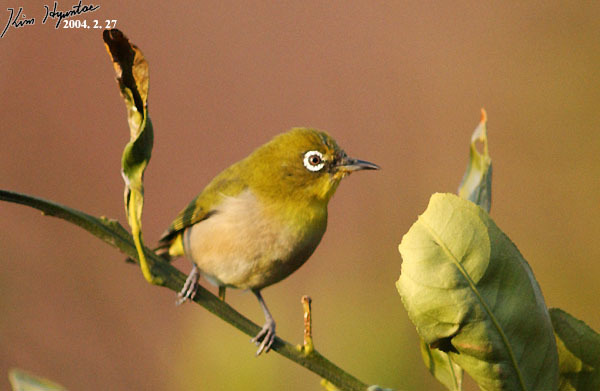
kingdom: Animalia
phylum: Chordata
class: Aves
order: Passeriformes
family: Zosteropidae
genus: Zosterops
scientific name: Zosterops japonicus
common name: Japanese white-eye
